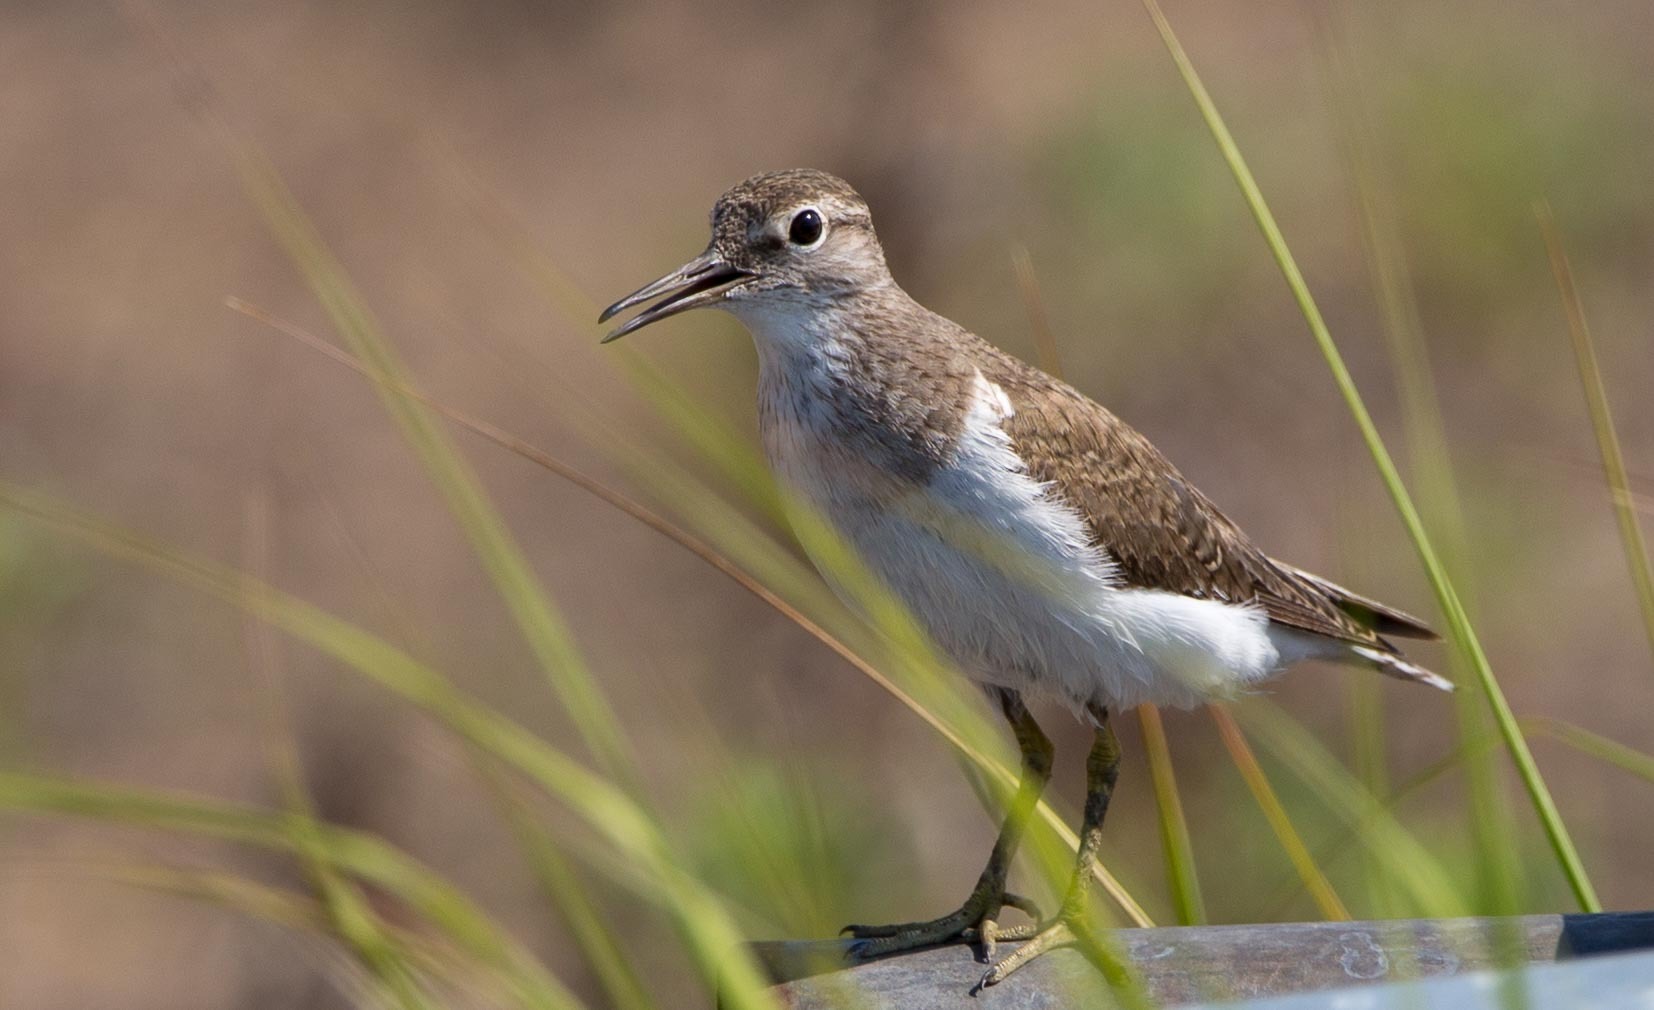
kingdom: Animalia
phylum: Chordata
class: Aves
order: Charadriiformes
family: Scolopacidae
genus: Actitis
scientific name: Actitis hypoleucos
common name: Common sandpiper
